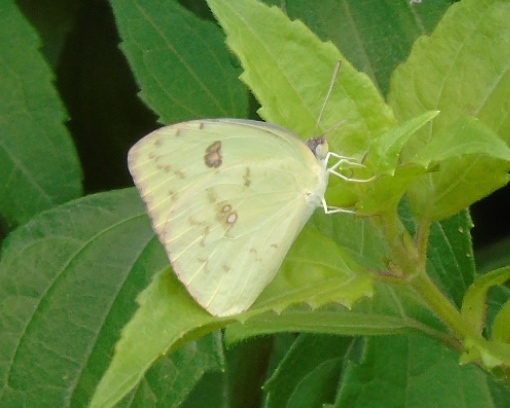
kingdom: Animalia
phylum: Arthropoda
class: Insecta
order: Lepidoptera
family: Pieridae
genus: Phoebis
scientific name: Phoebis marcellina
